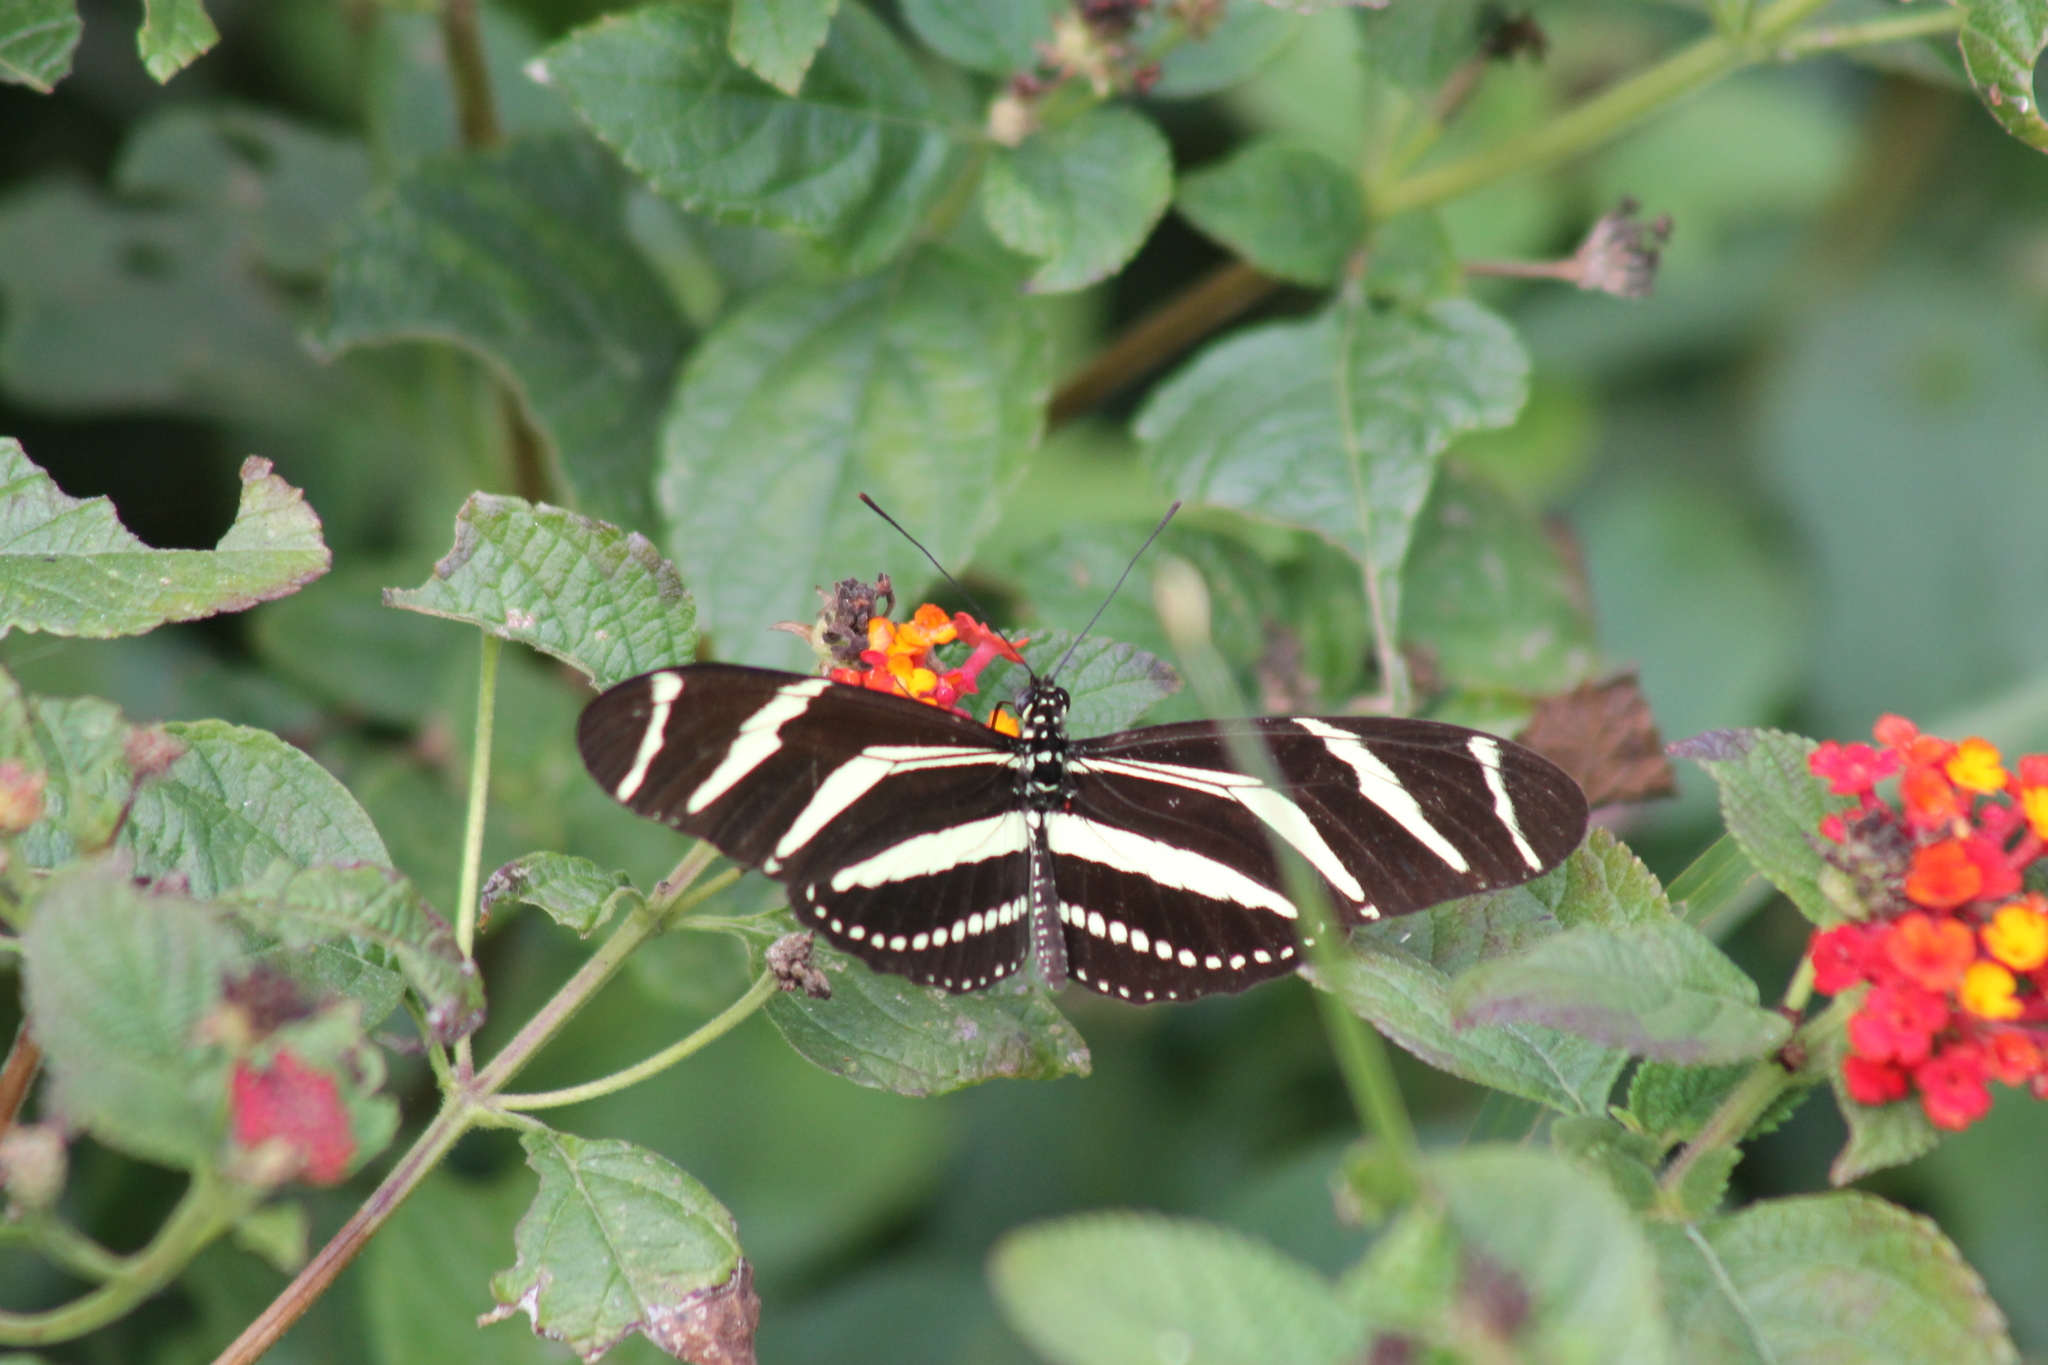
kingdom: Animalia
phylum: Arthropoda
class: Insecta
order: Lepidoptera
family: Nymphalidae
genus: Heliconius
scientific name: Heliconius charithonia
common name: Zebra long wing
